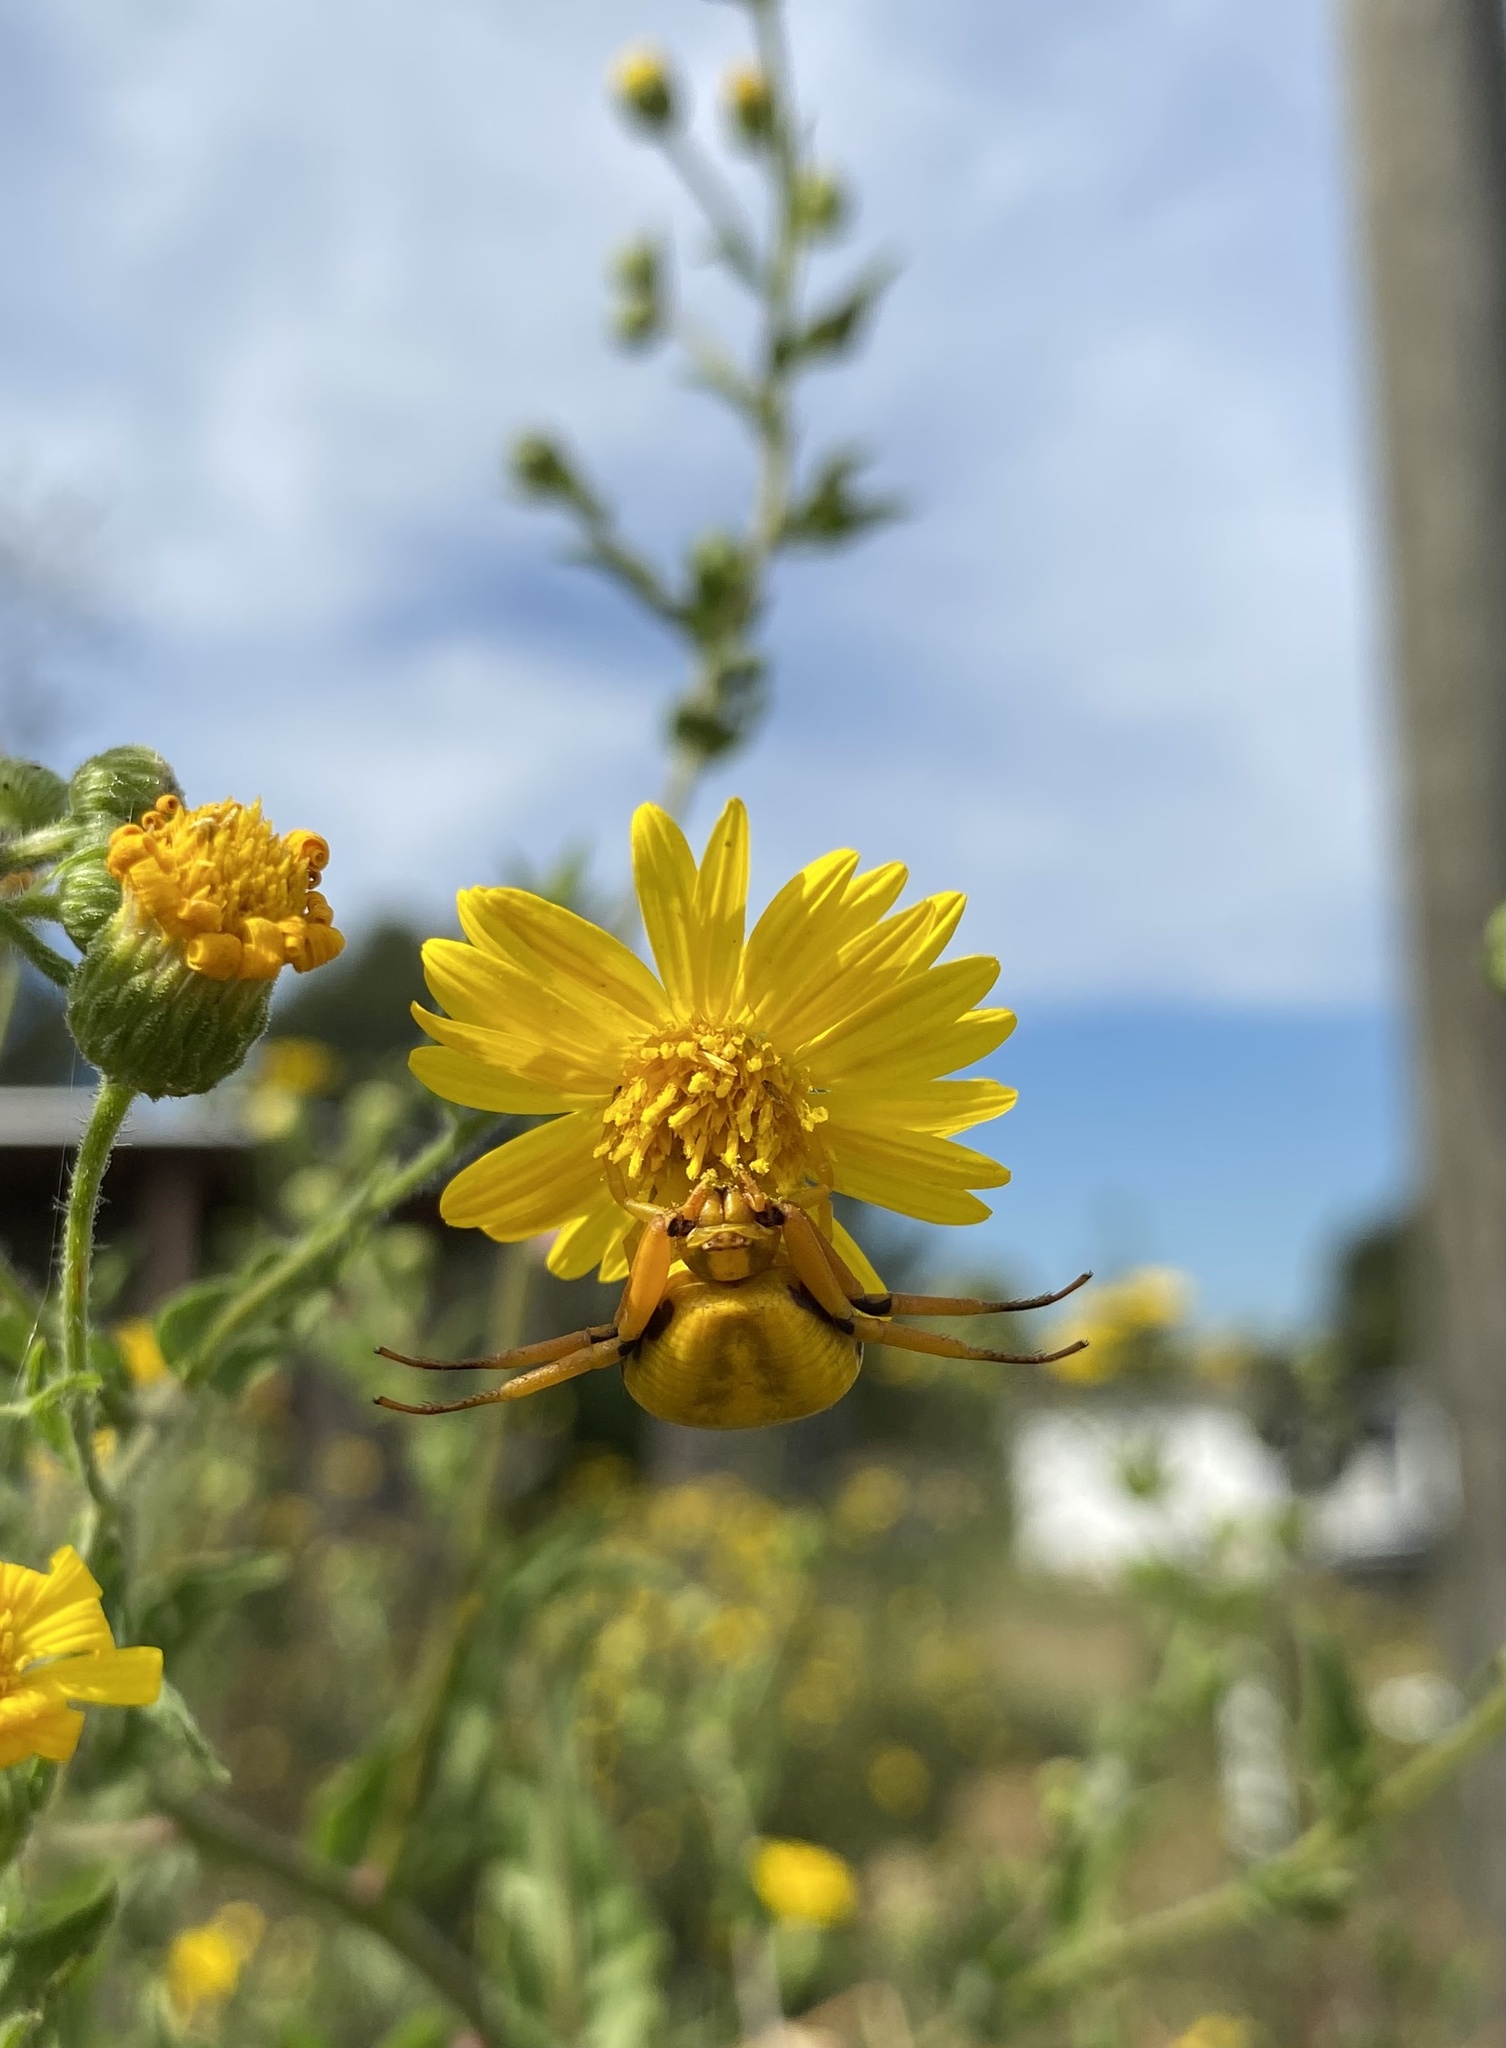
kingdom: Animalia
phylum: Arthropoda
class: Arachnida
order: Araneae
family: Thomisidae
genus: Misumenoides
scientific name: Misumenoides formosipes
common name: White-banded crab spider
